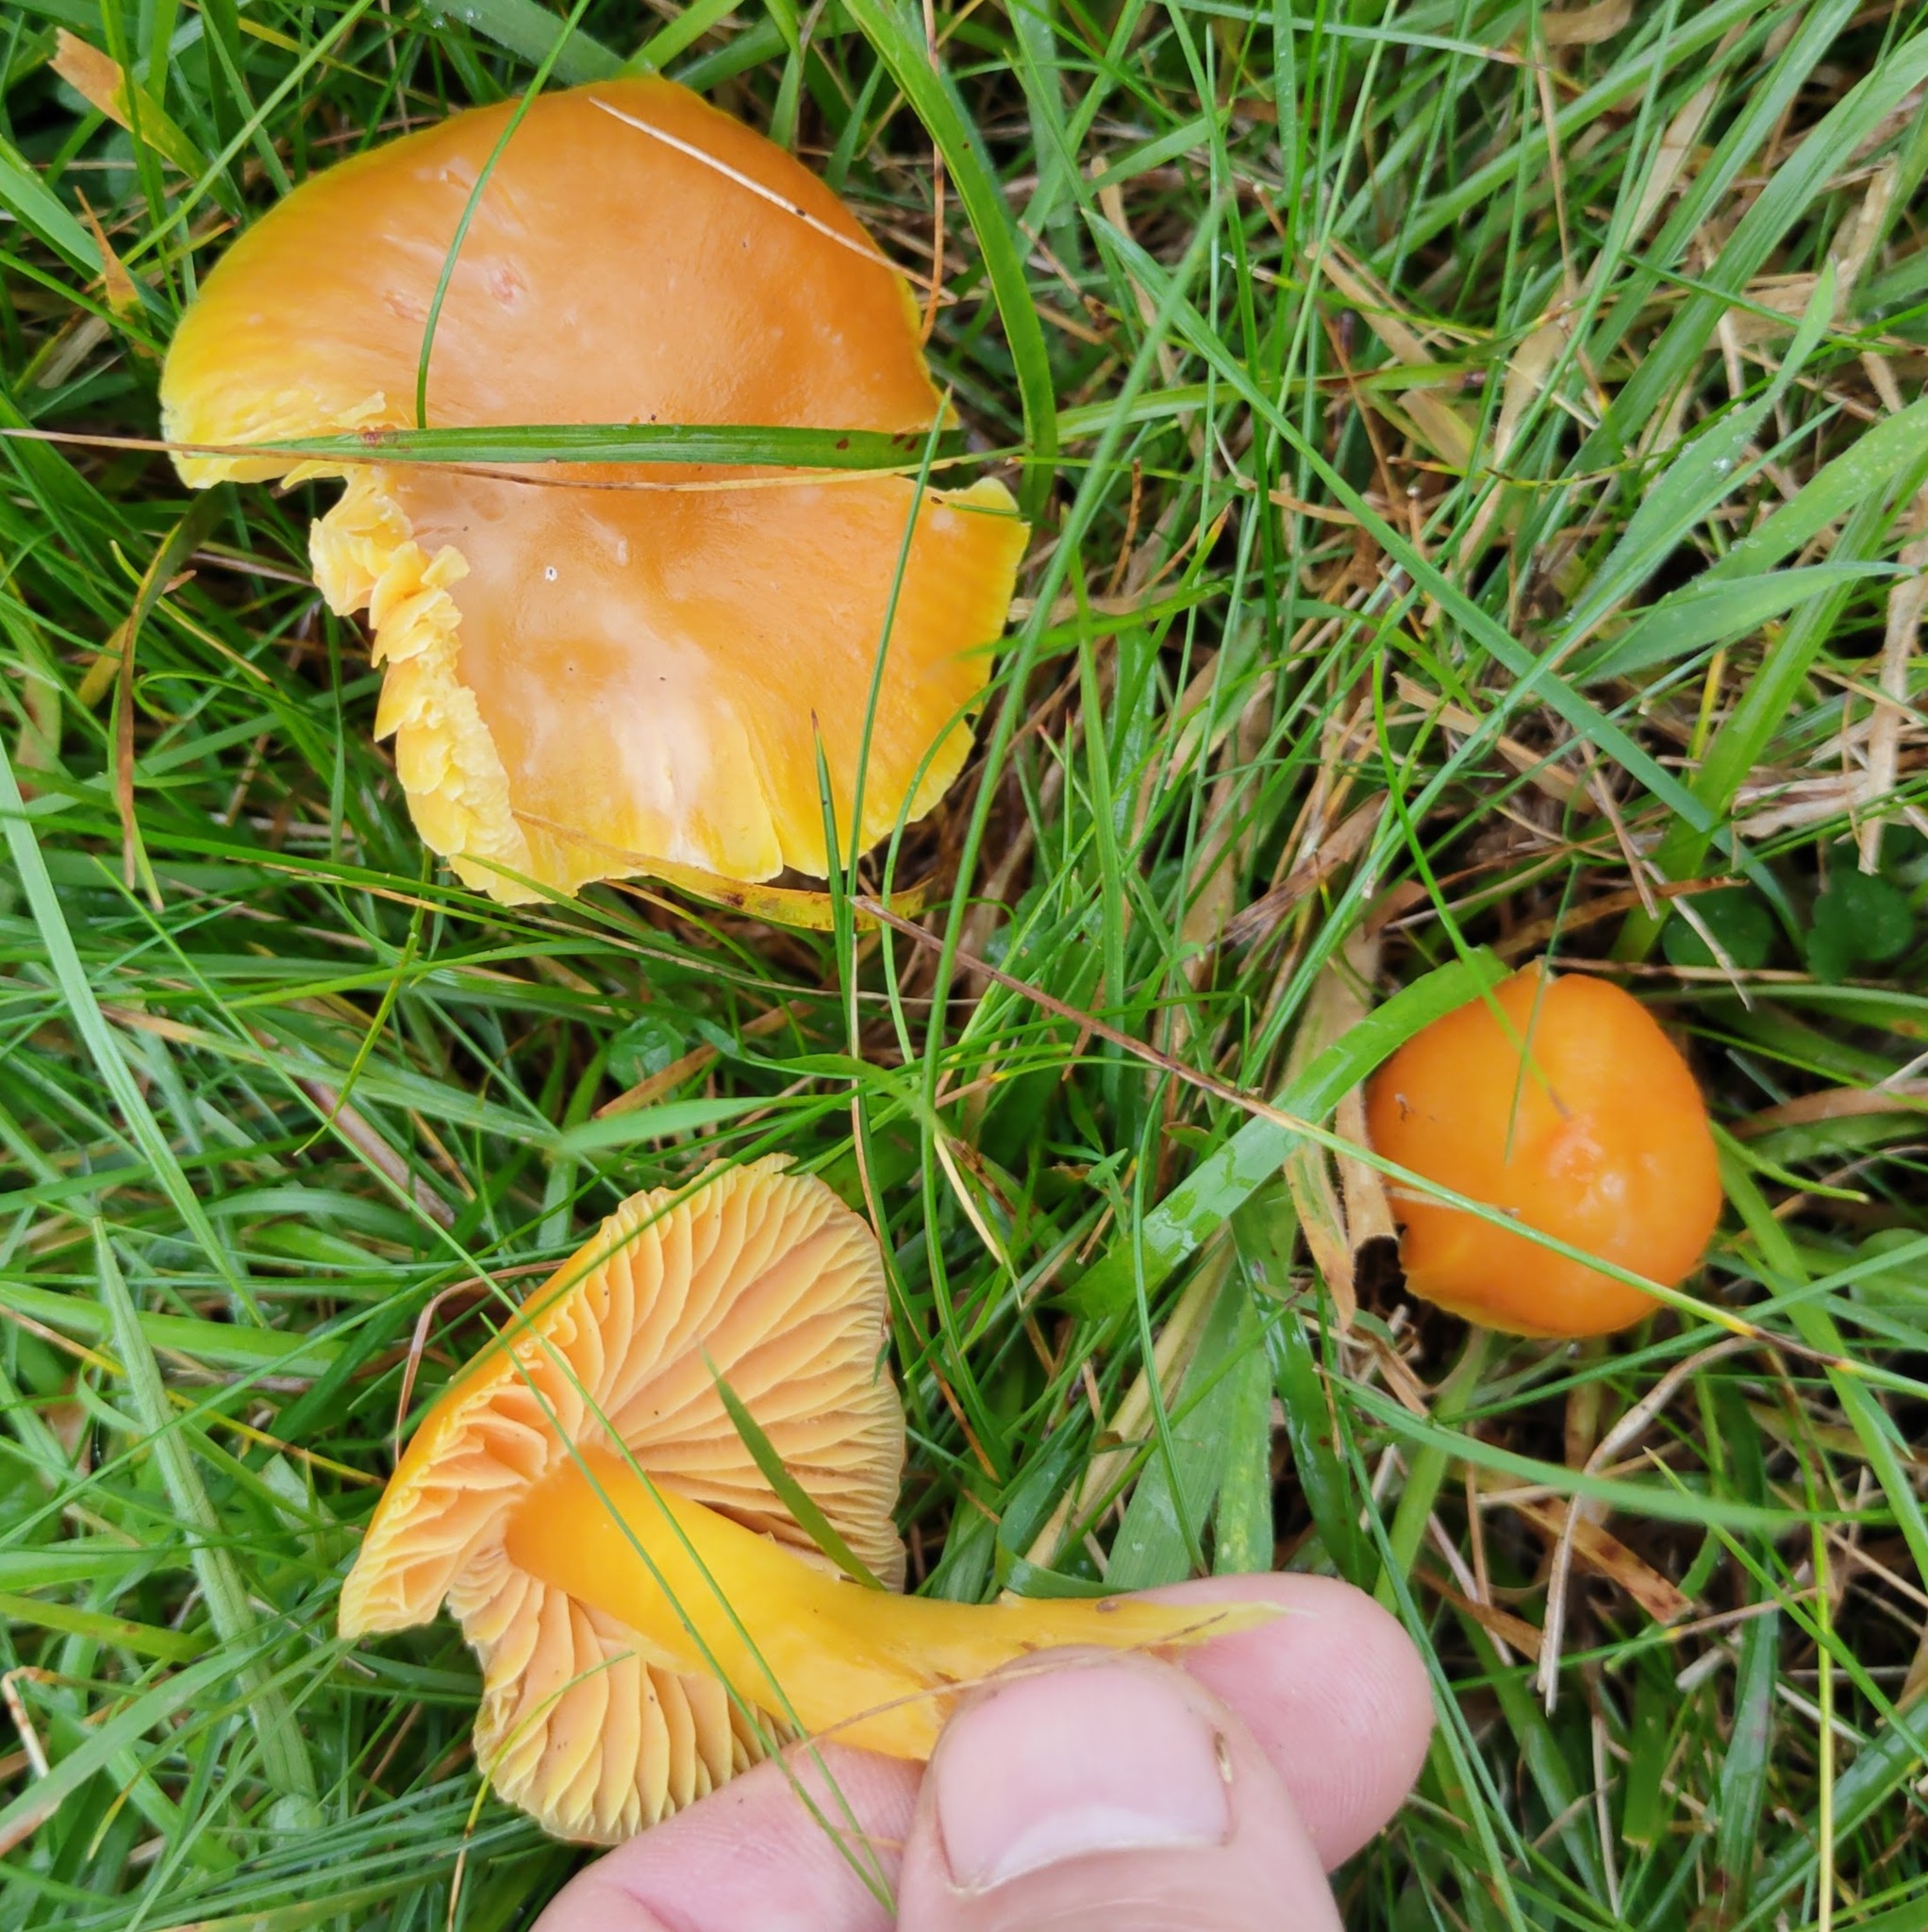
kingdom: Fungi
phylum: Basidiomycota
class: Agaricomycetes
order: Agaricales
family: Hygrophoraceae
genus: Hygrocybe
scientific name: Hygrocybe quieta
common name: Oily waxcap
